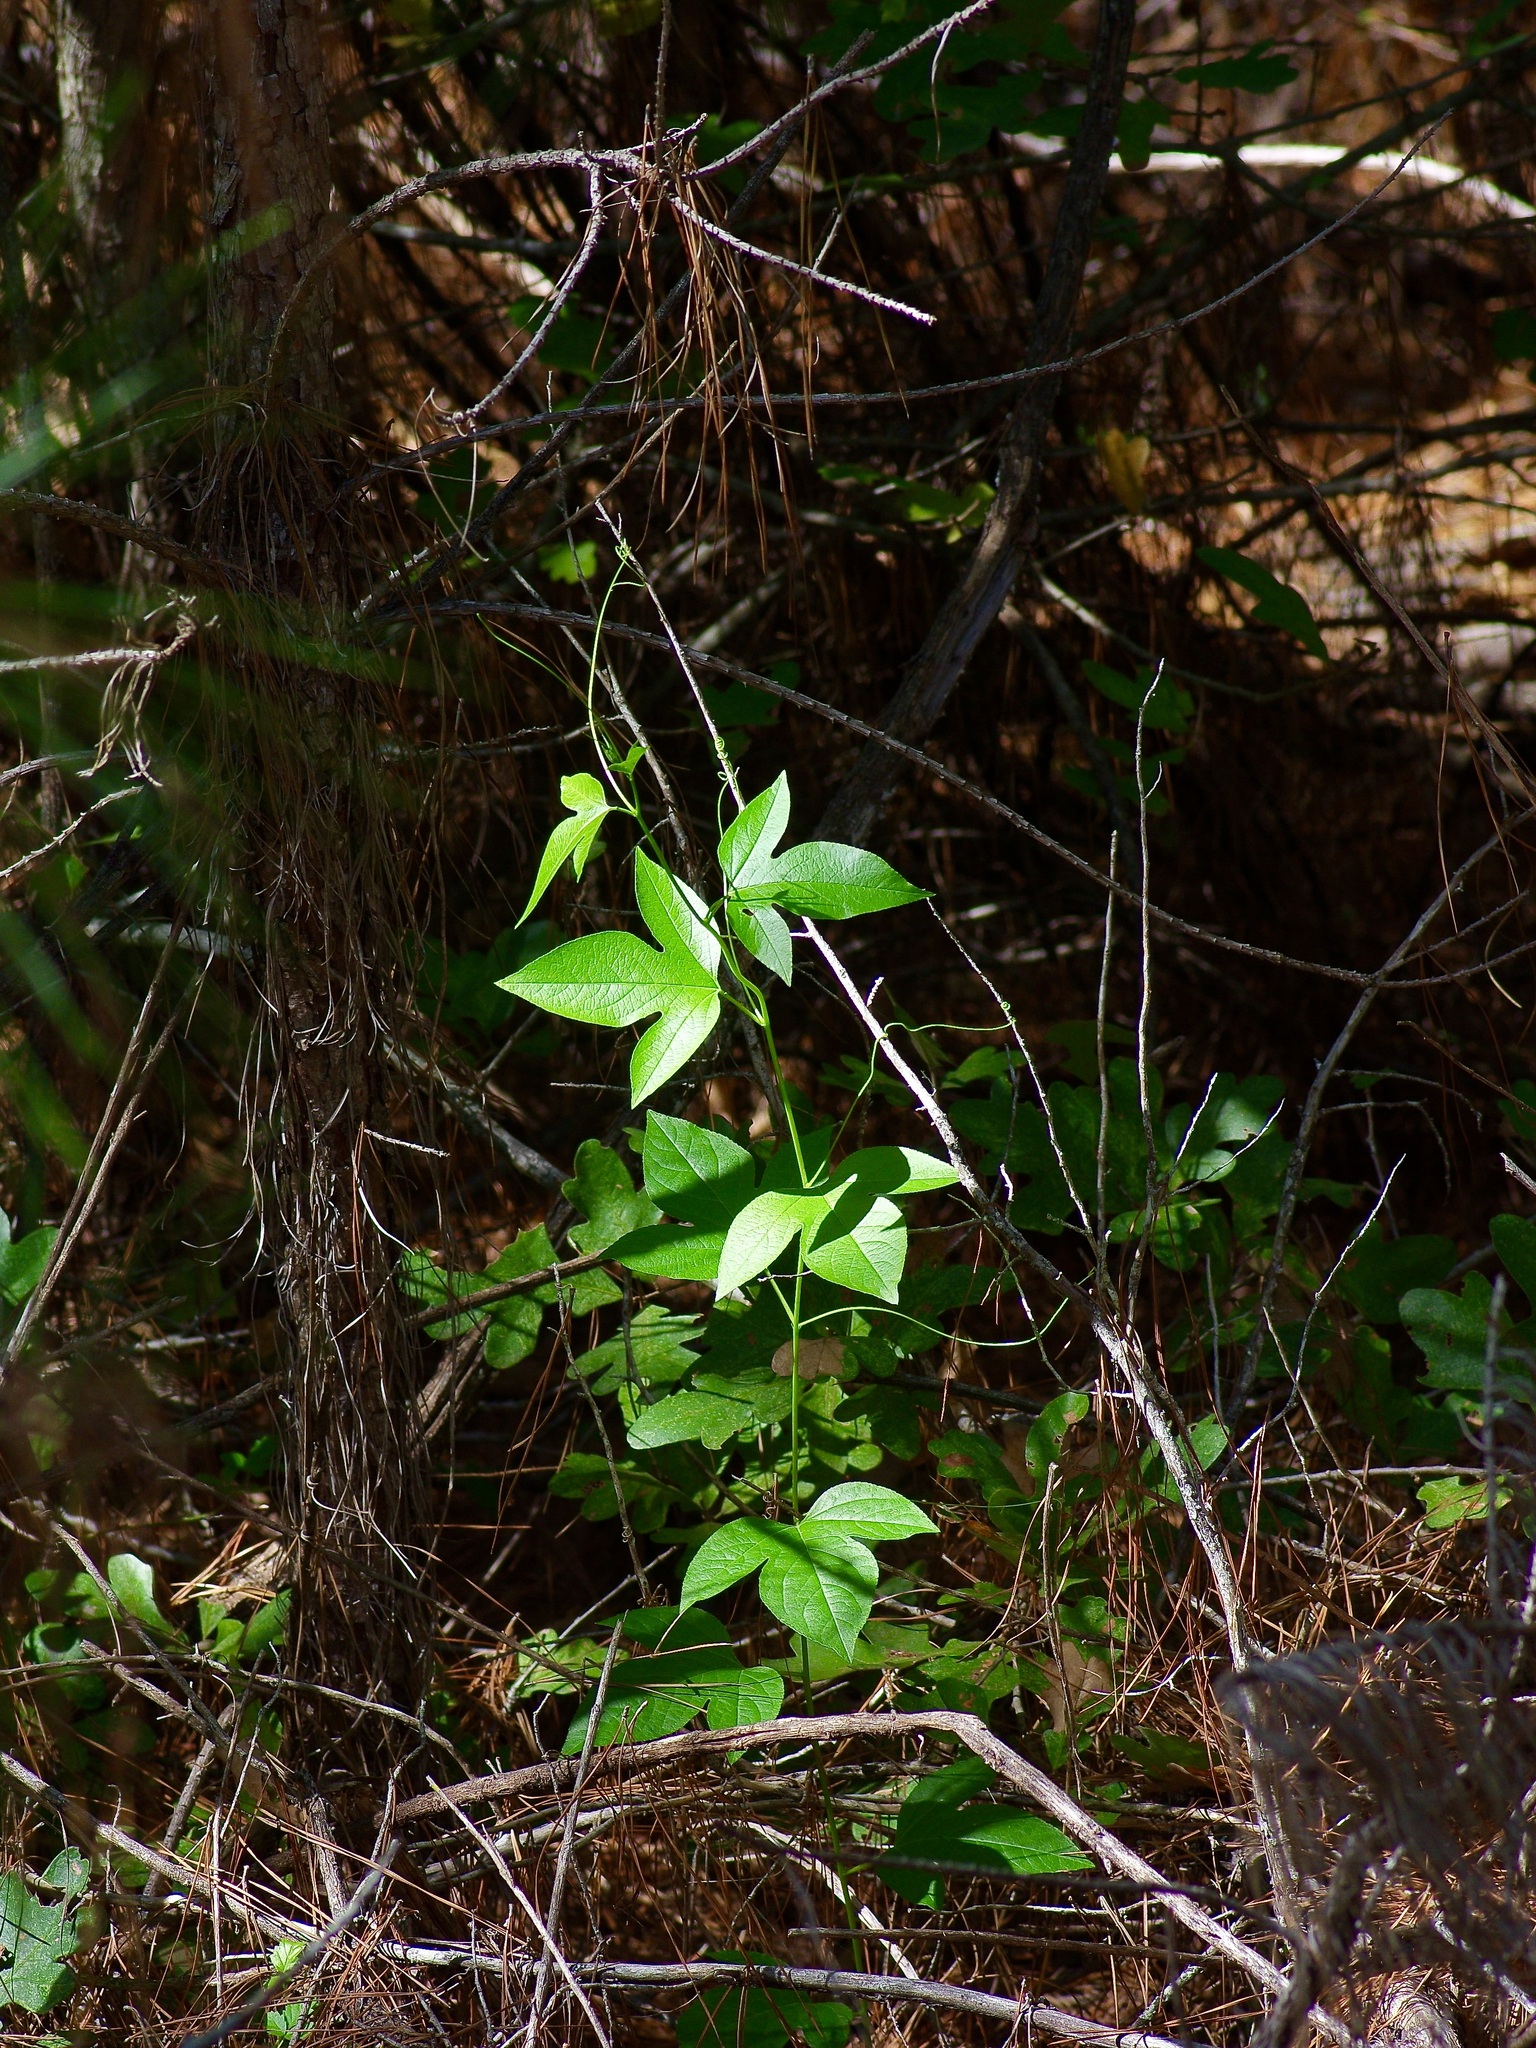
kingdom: Plantae
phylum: Tracheophyta
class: Magnoliopsida
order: Malpighiales
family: Passifloraceae
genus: Passiflora
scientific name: Passiflora incarnata
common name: Apricot-vine
